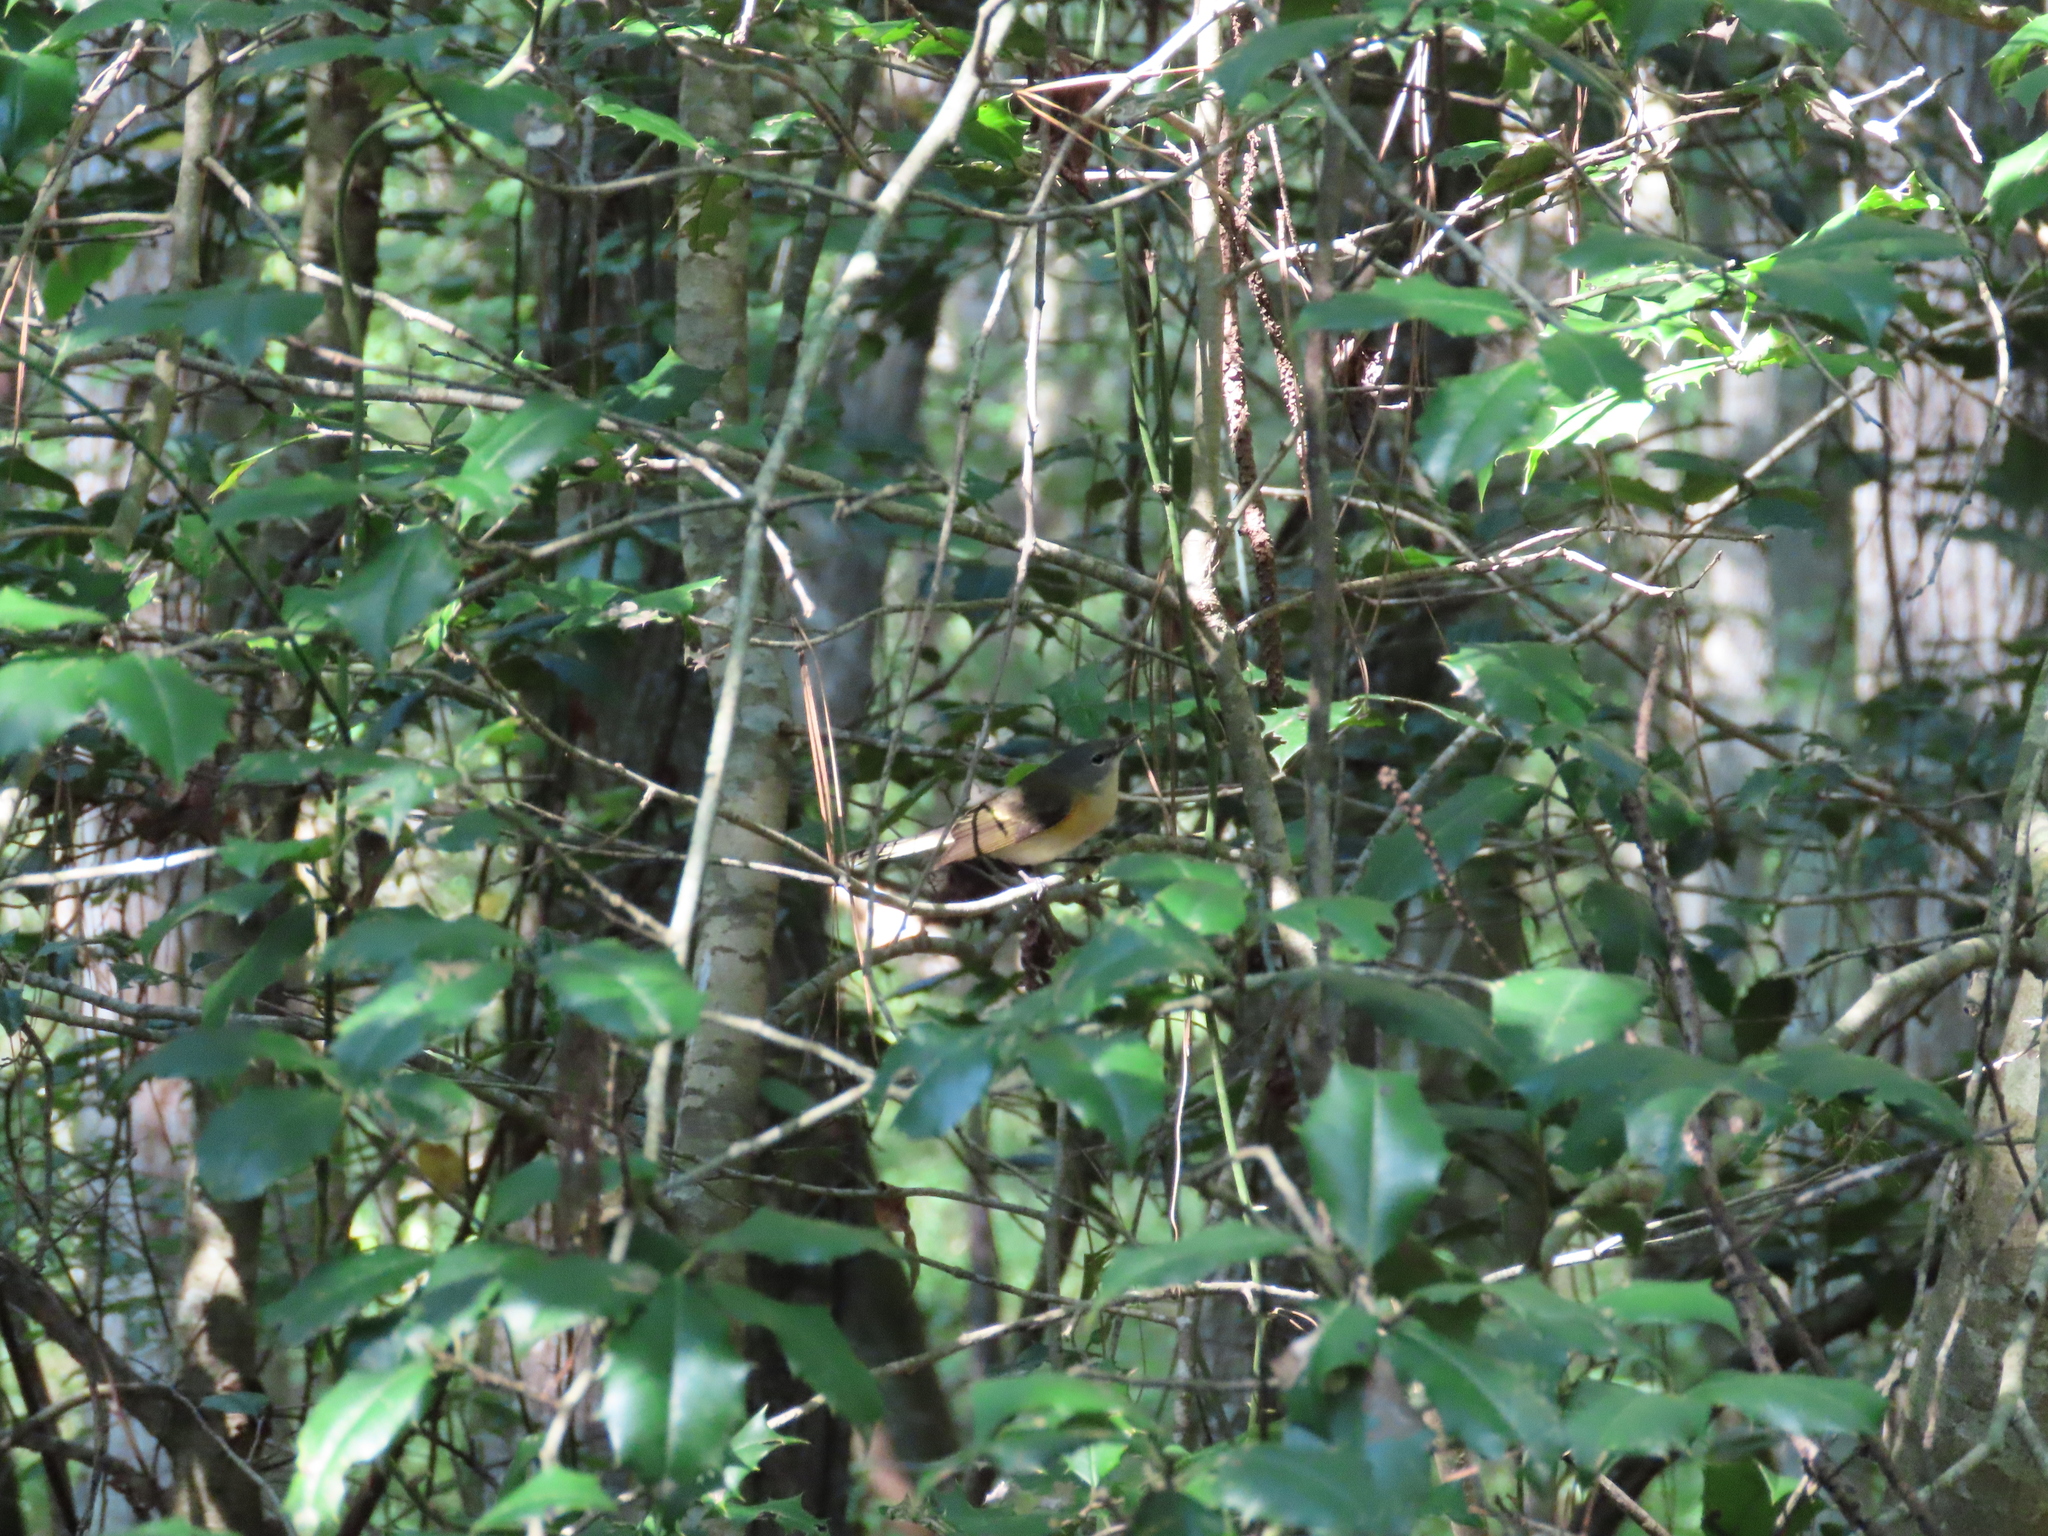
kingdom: Animalia
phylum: Chordata
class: Aves
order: Passeriformes
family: Parulidae
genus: Setophaga
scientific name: Setophaga ruticilla
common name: American redstart
